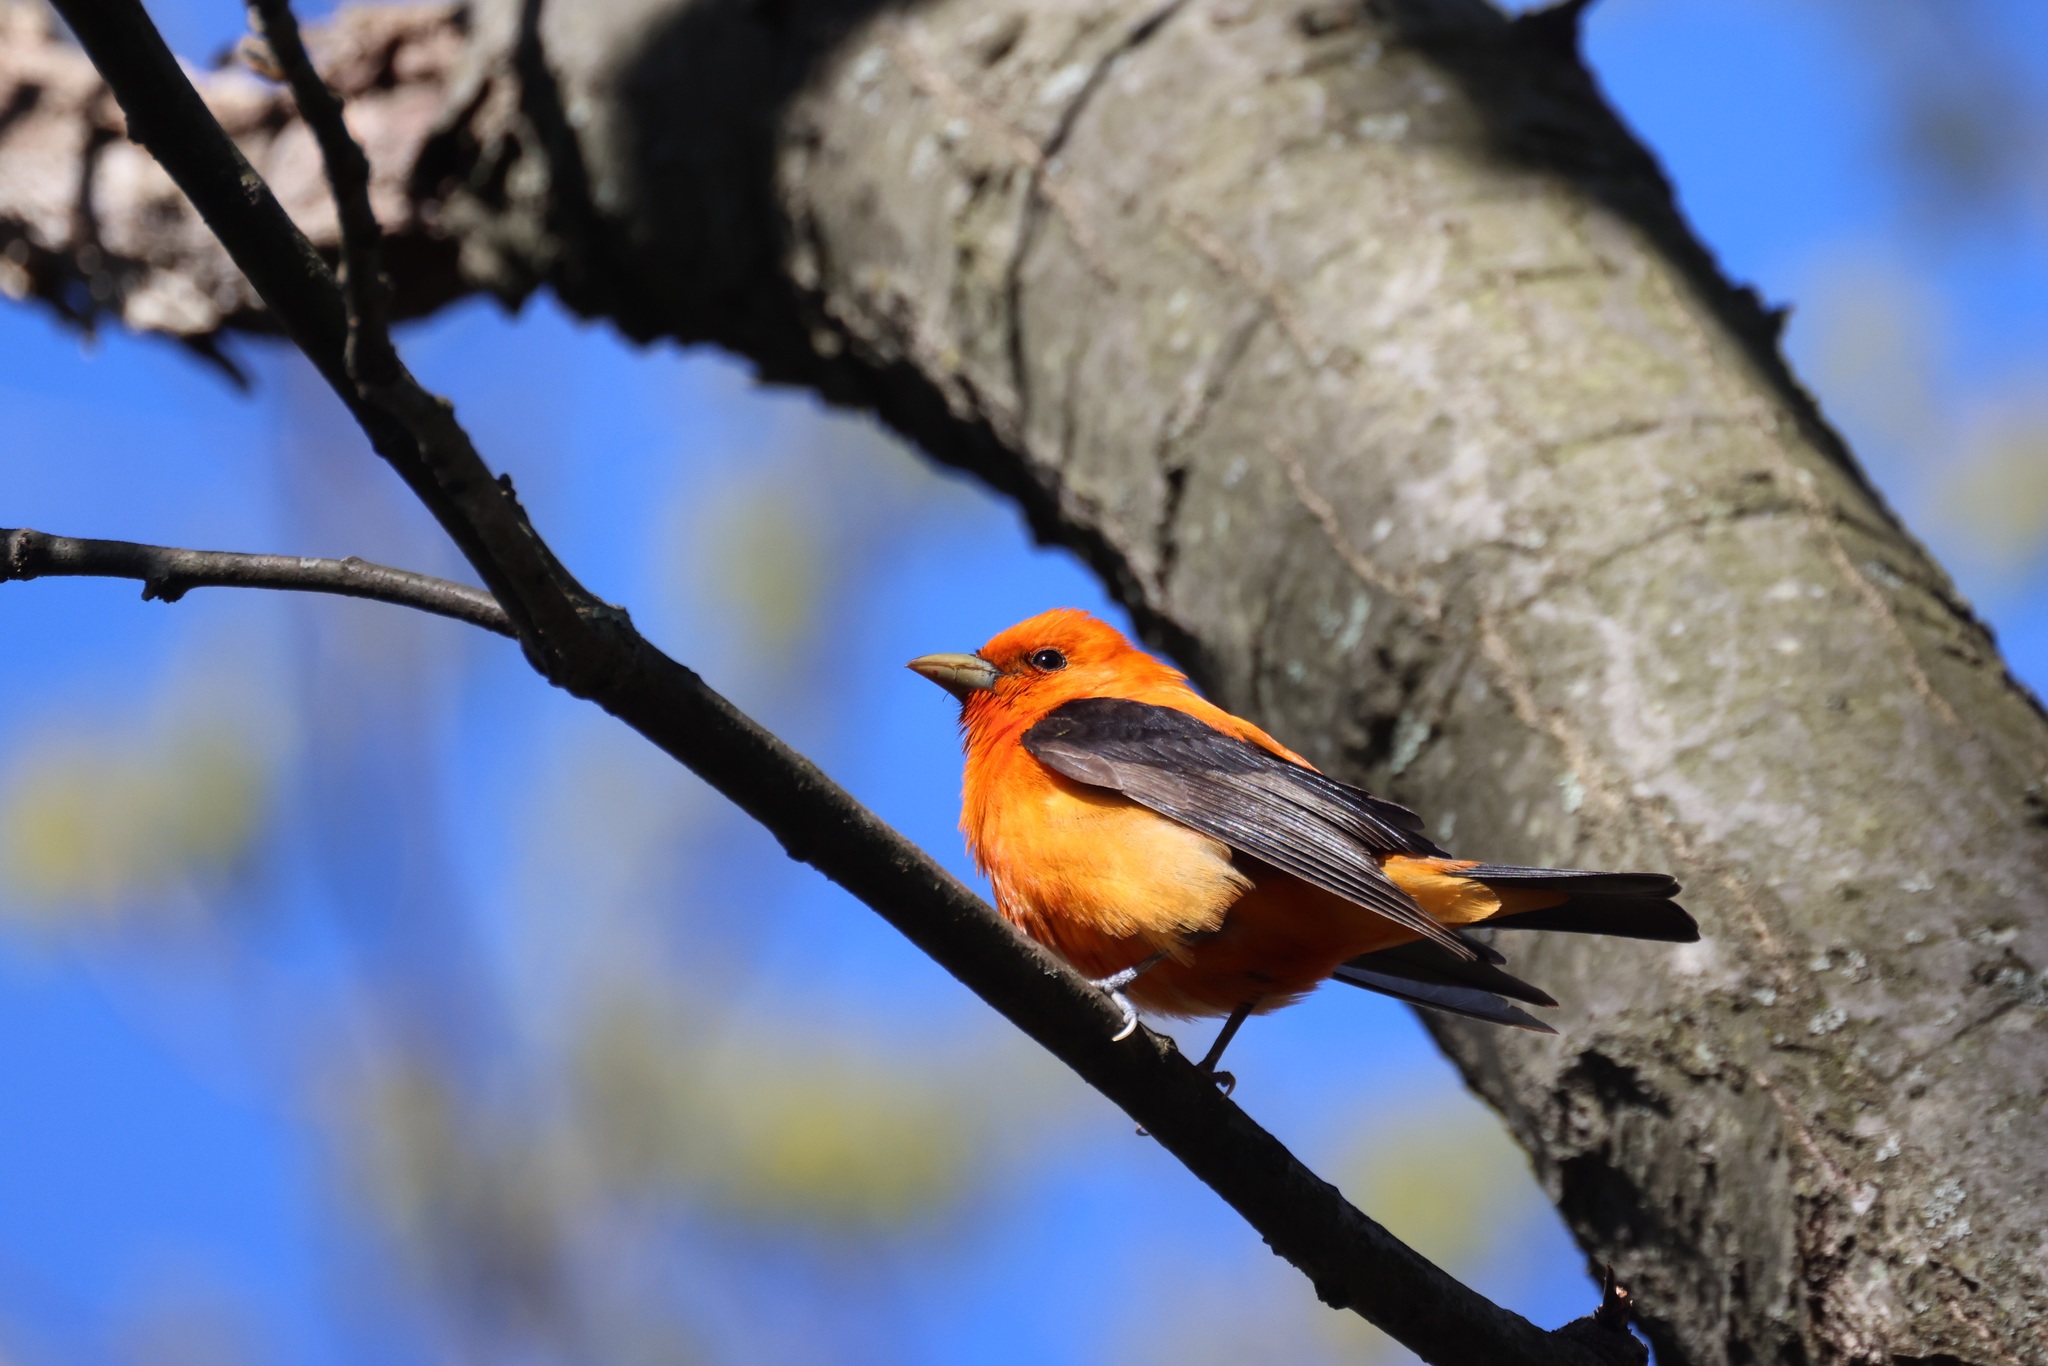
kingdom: Animalia
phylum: Chordata
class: Aves
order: Passeriformes
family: Cardinalidae
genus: Piranga
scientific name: Piranga olivacea
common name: Scarlet tanager
